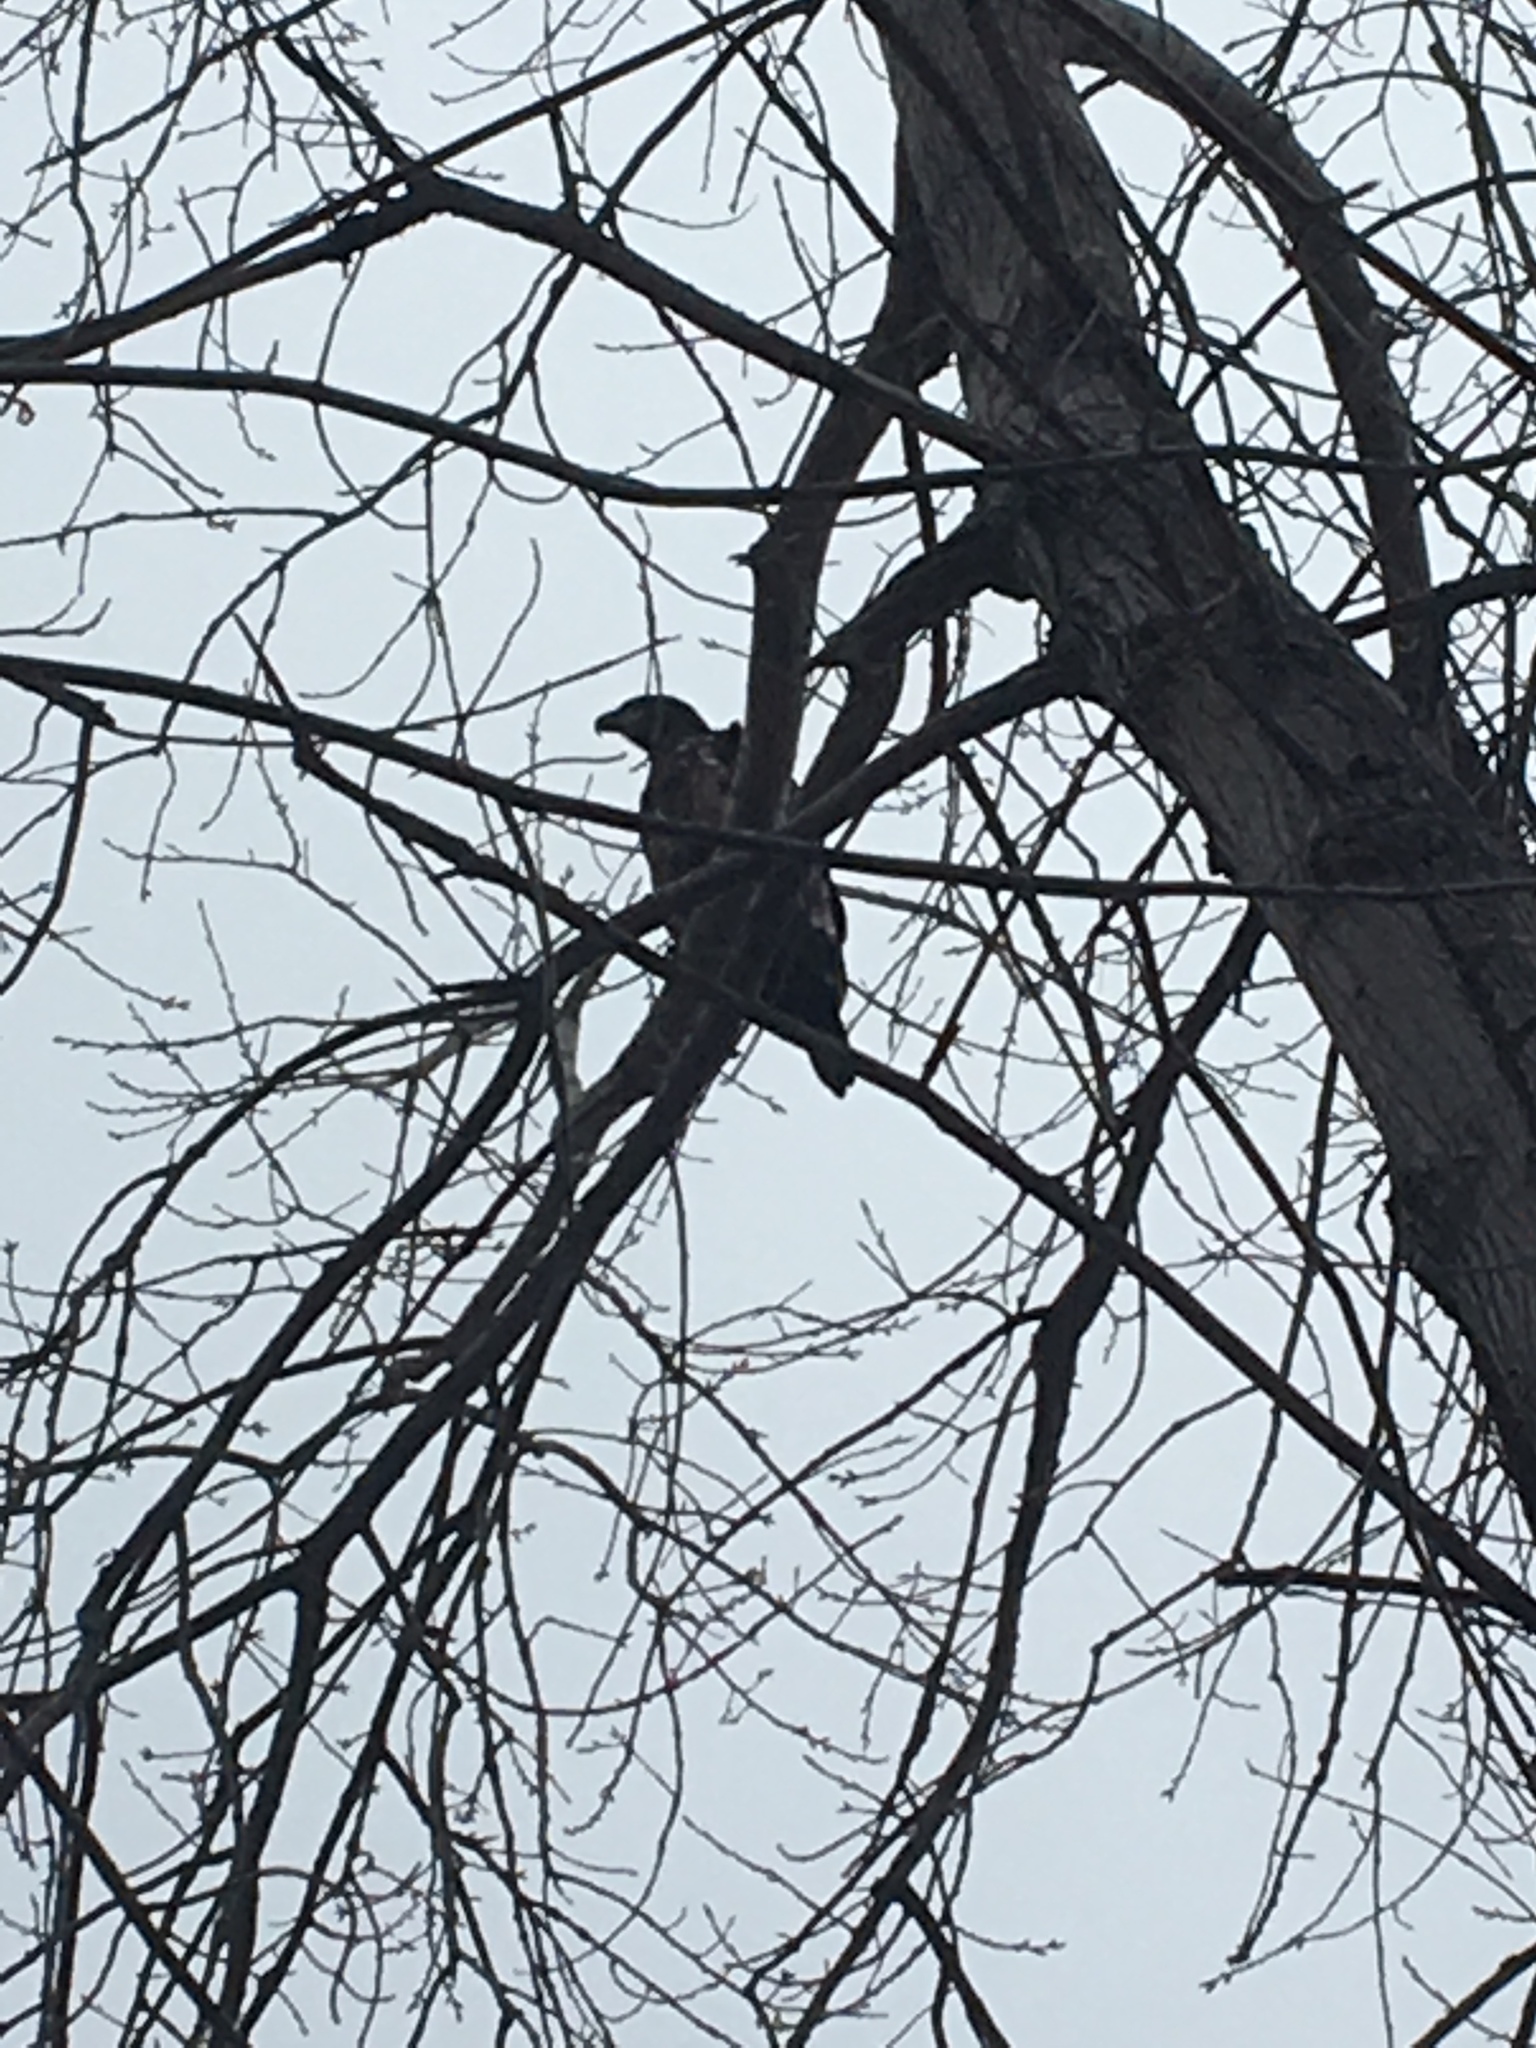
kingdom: Animalia
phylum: Chordata
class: Aves
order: Accipitriformes
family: Accipitridae
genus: Haliaeetus
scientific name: Haliaeetus leucocephalus
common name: Bald eagle
